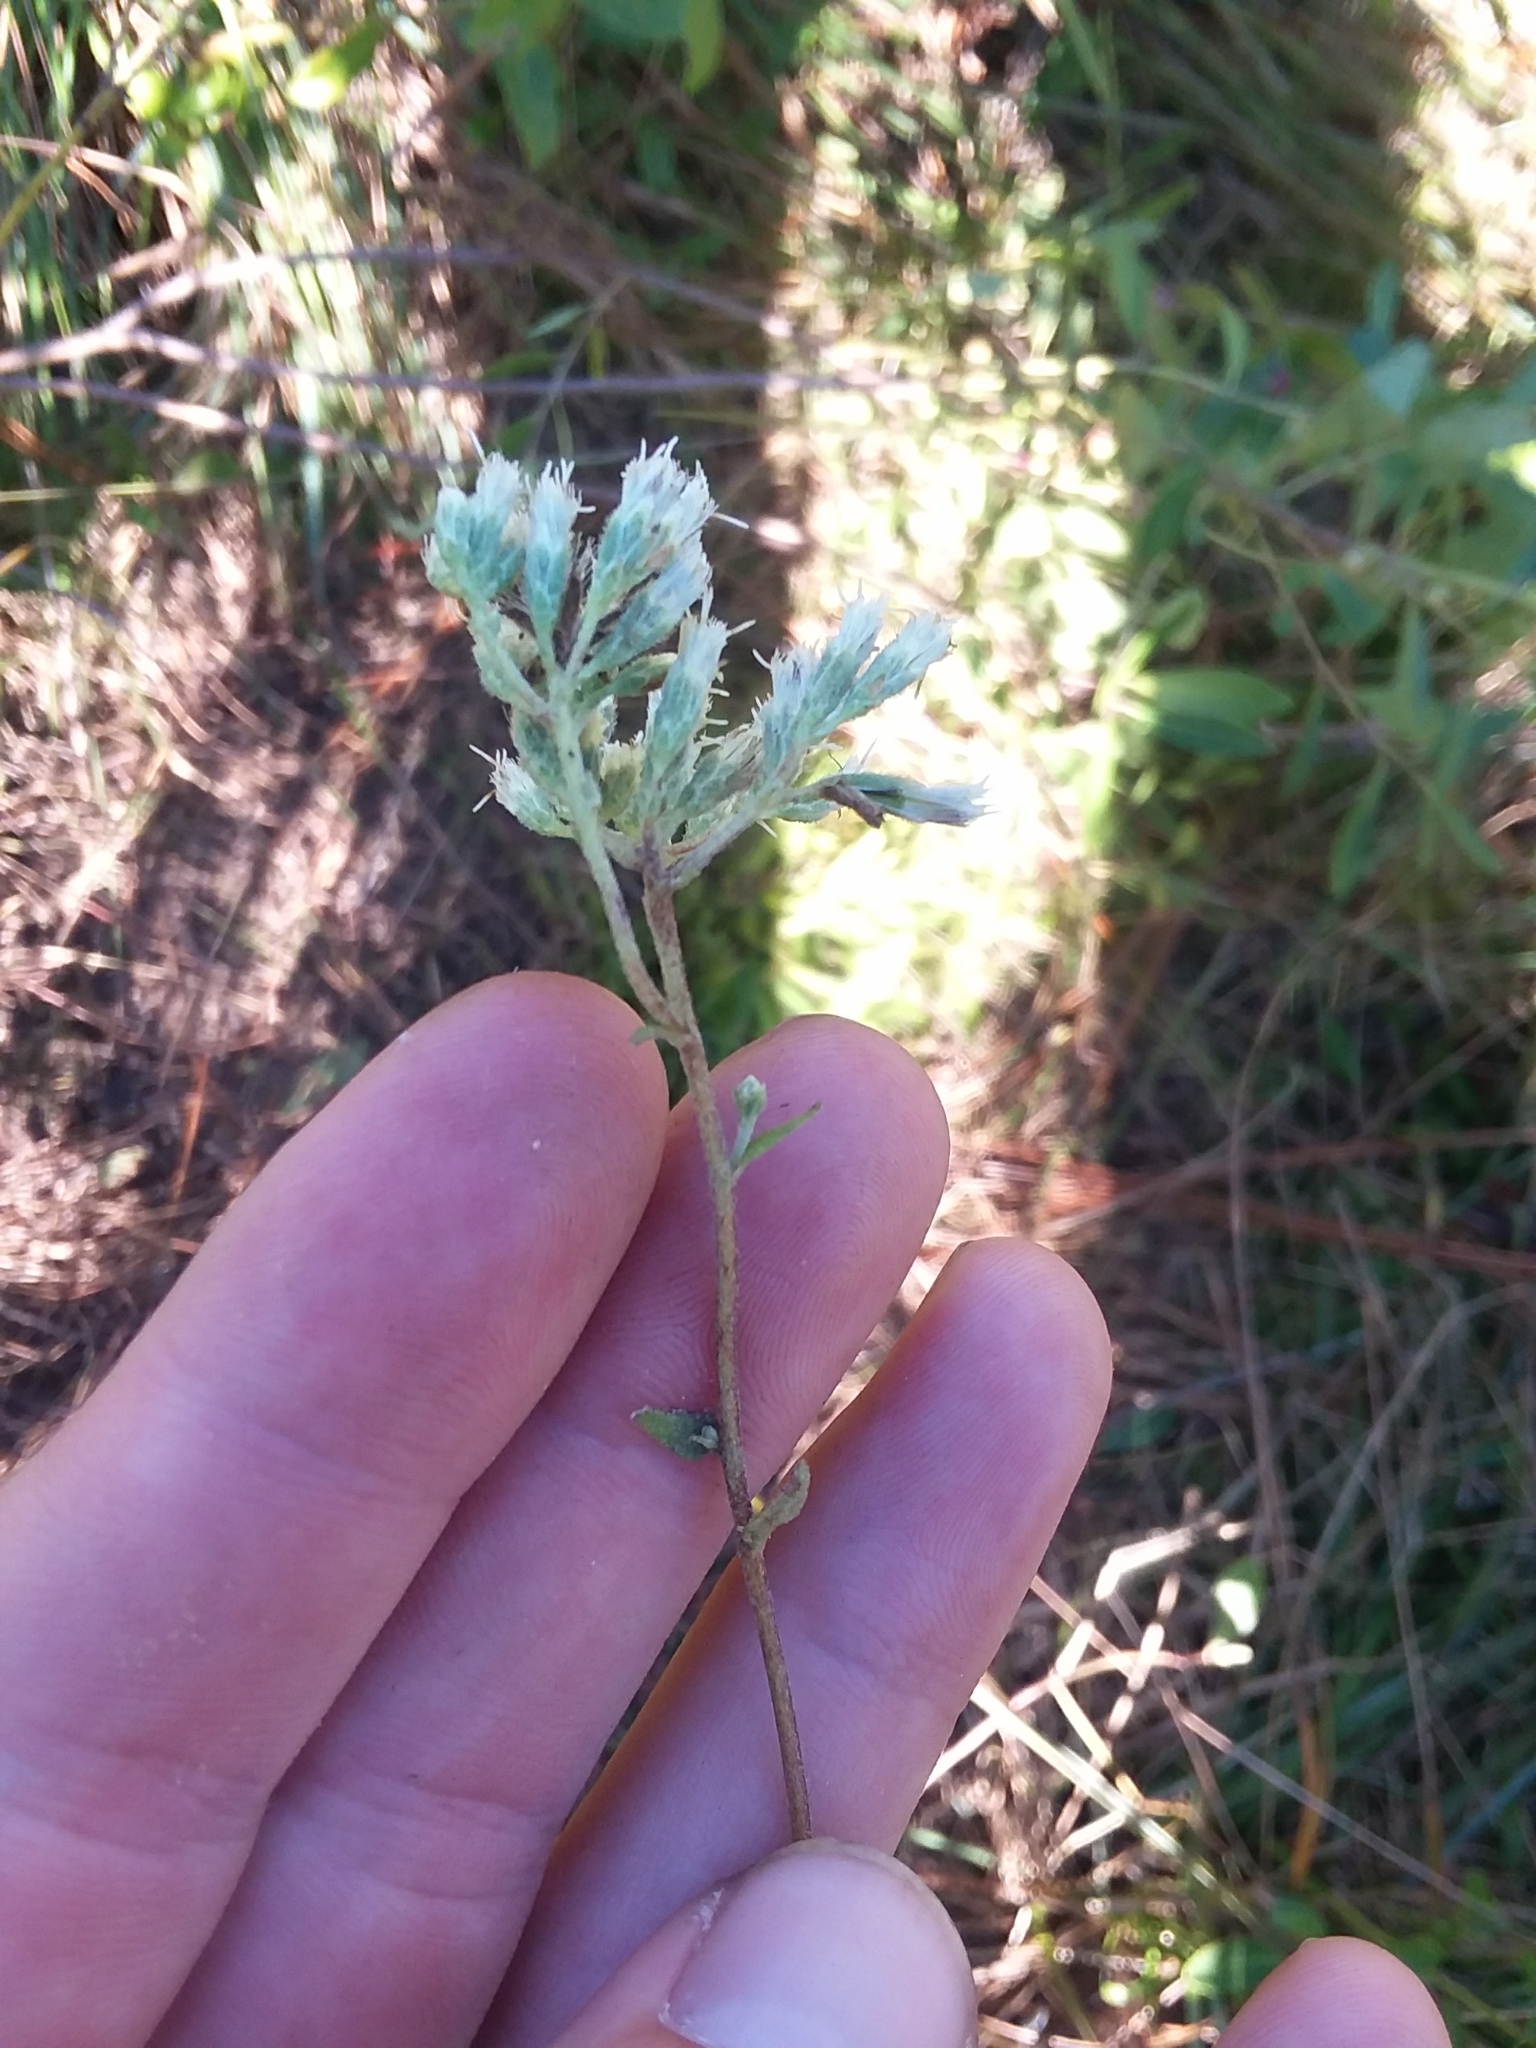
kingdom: Plantae
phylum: Tracheophyta
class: Magnoliopsida
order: Asterales
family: Asteraceae
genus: Eupatorium
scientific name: Eupatorium pilosum
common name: Rough boneset
